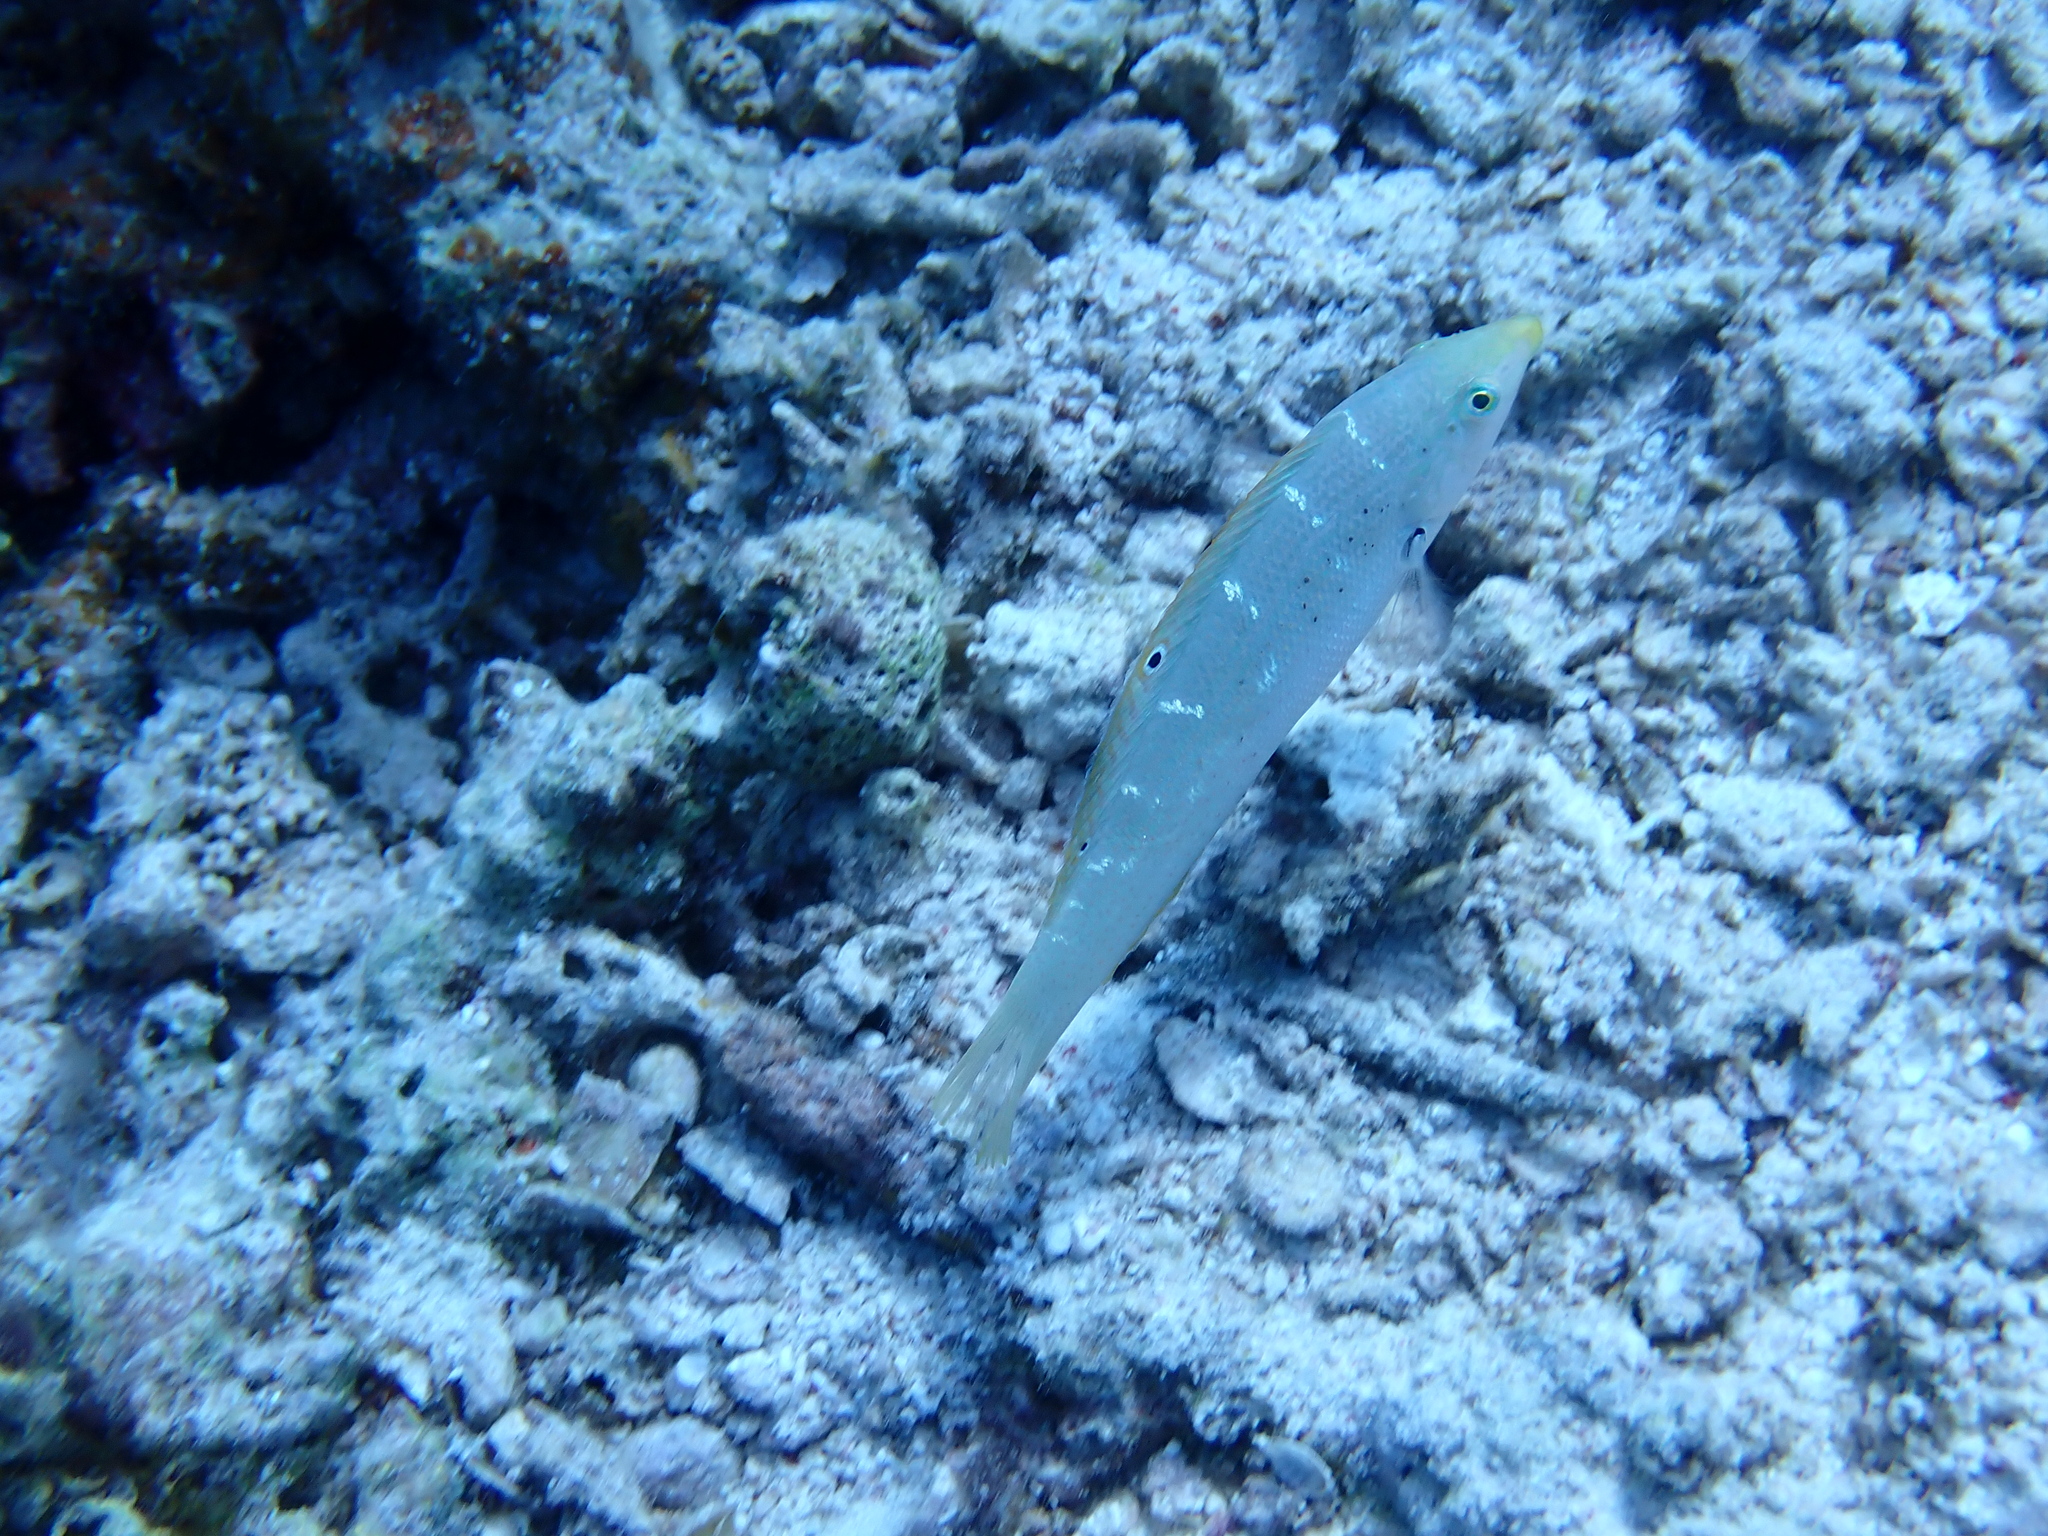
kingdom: Animalia
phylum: Chordata
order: Perciformes
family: Labridae
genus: Coris
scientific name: Coris variegata
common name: Dapple coris
